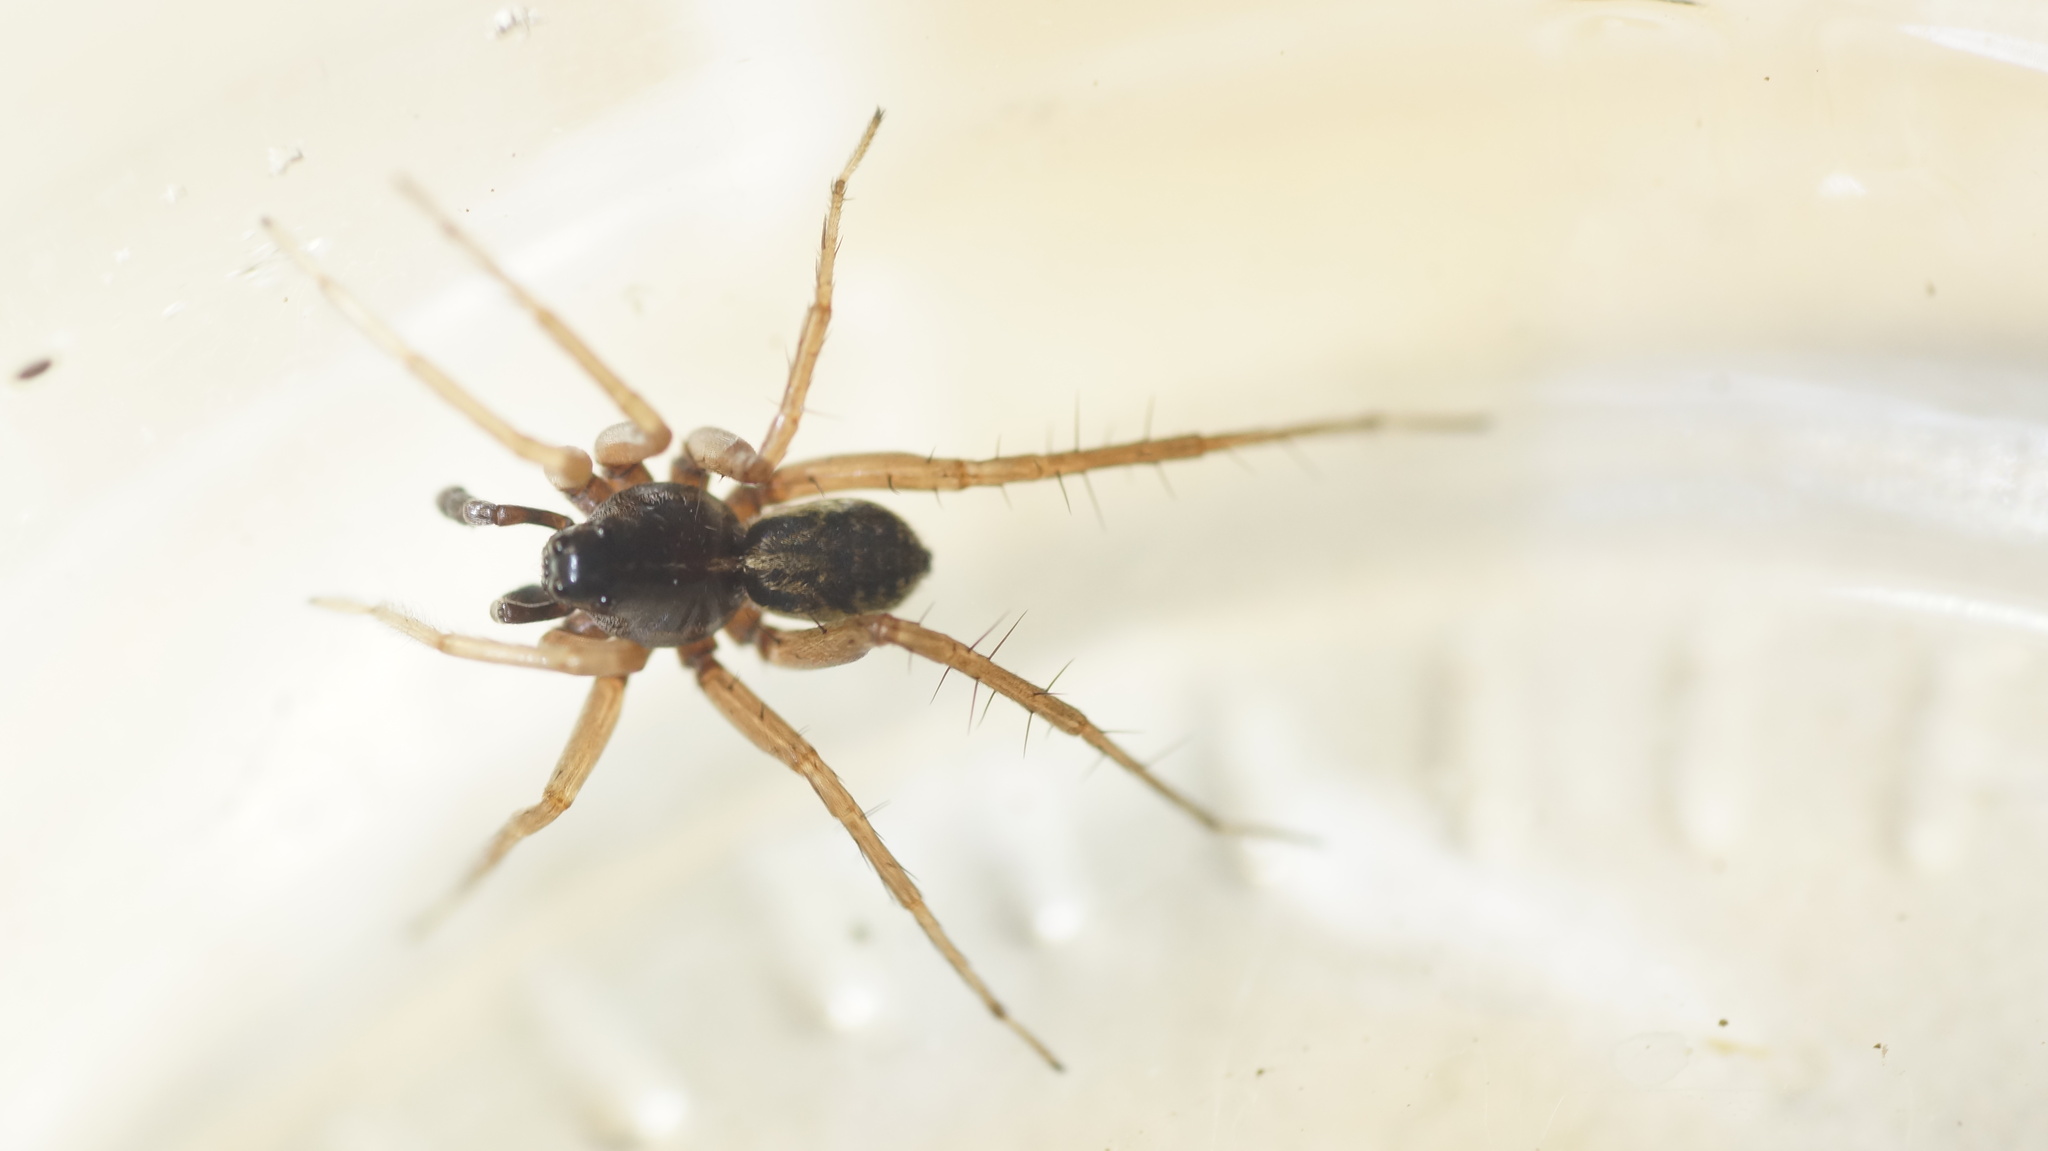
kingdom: Animalia
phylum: Arthropoda
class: Arachnida
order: Araneae
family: Lycosidae
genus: Pardosa
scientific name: Pardosa fulvipes
